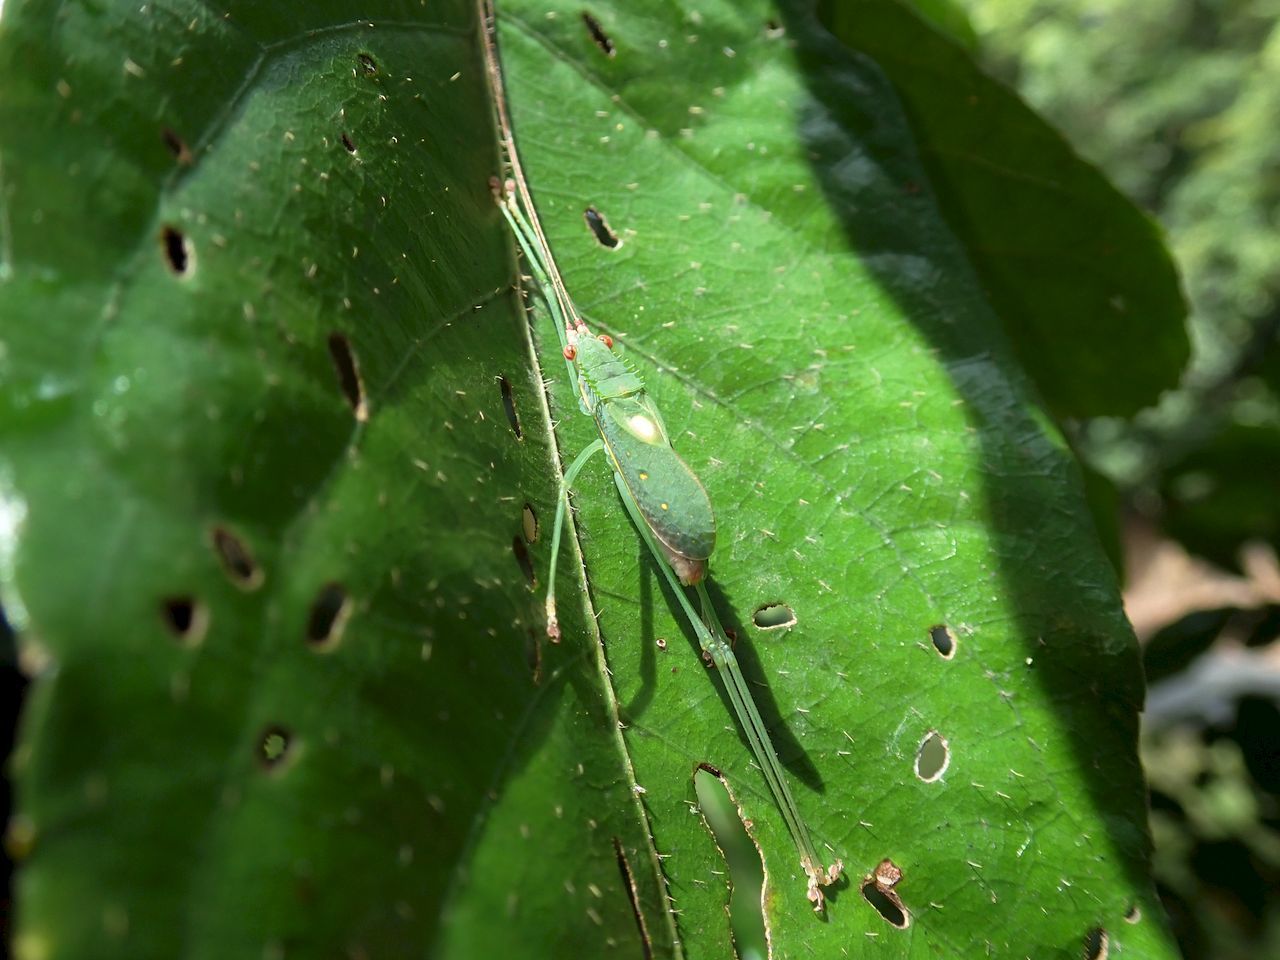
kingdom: Animalia
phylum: Arthropoda
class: Insecta
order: Orthoptera
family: Tettigoniidae
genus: Chloracantha
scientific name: Chloracantha lampra
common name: Delicate false-leaf katydid
